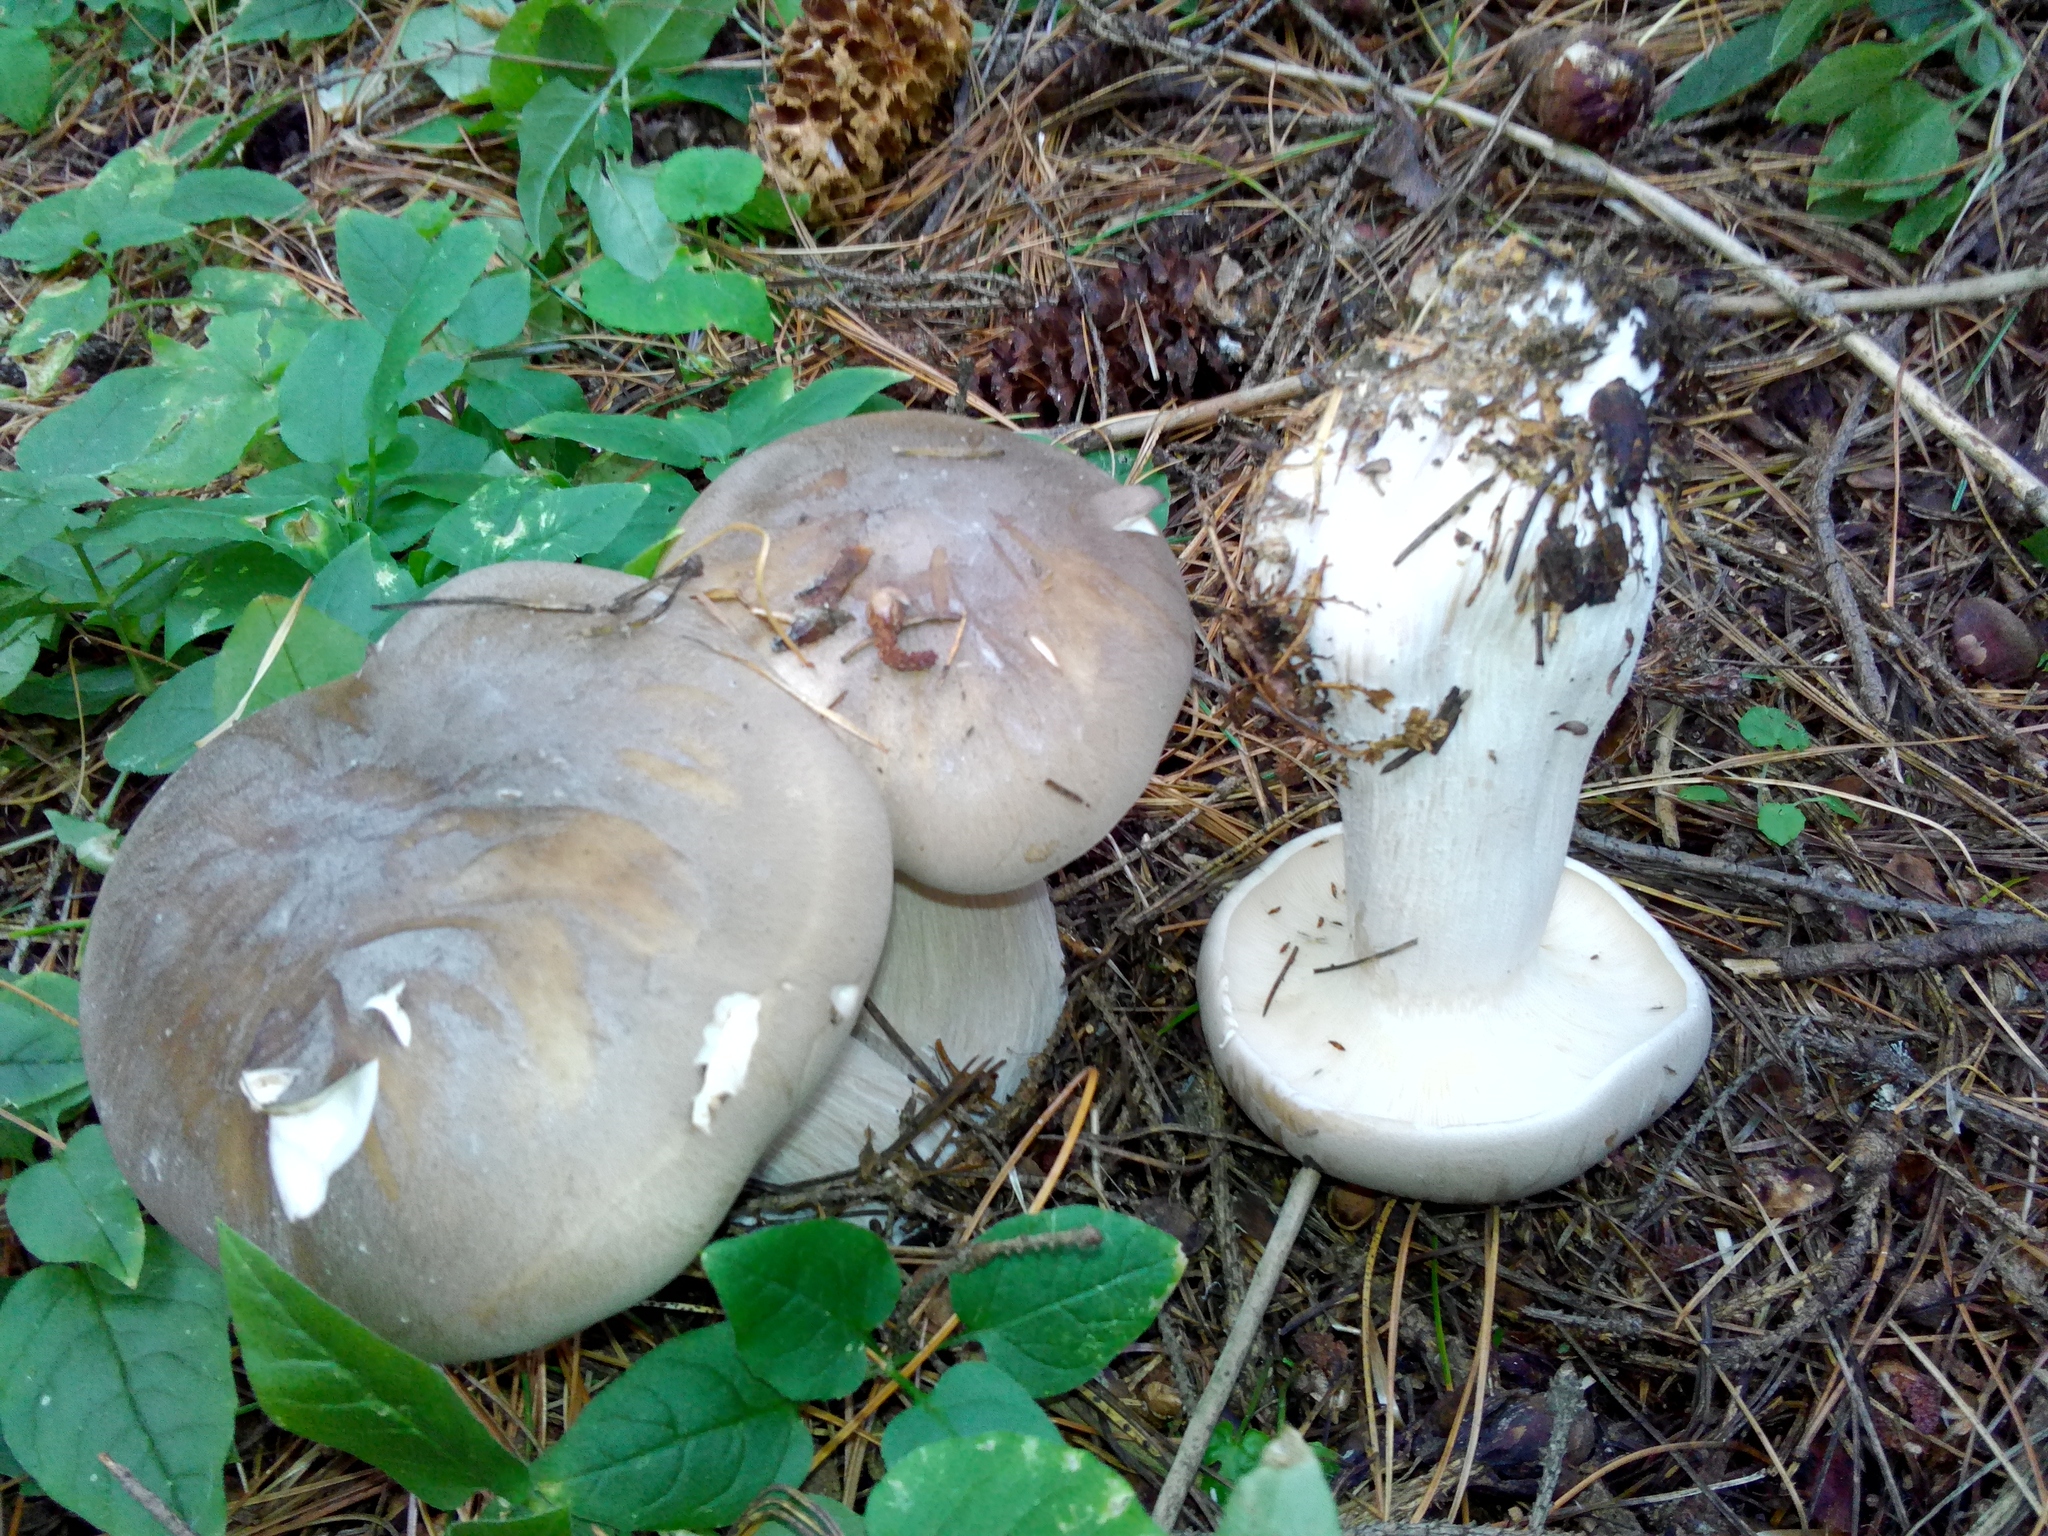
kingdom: Fungi
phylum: Basidiomycota
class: Agaricomycetes
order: Agaricales
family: Tricholomataceae
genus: Clitocybe
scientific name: Clitocybe nebularis
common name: Clouded agaric
